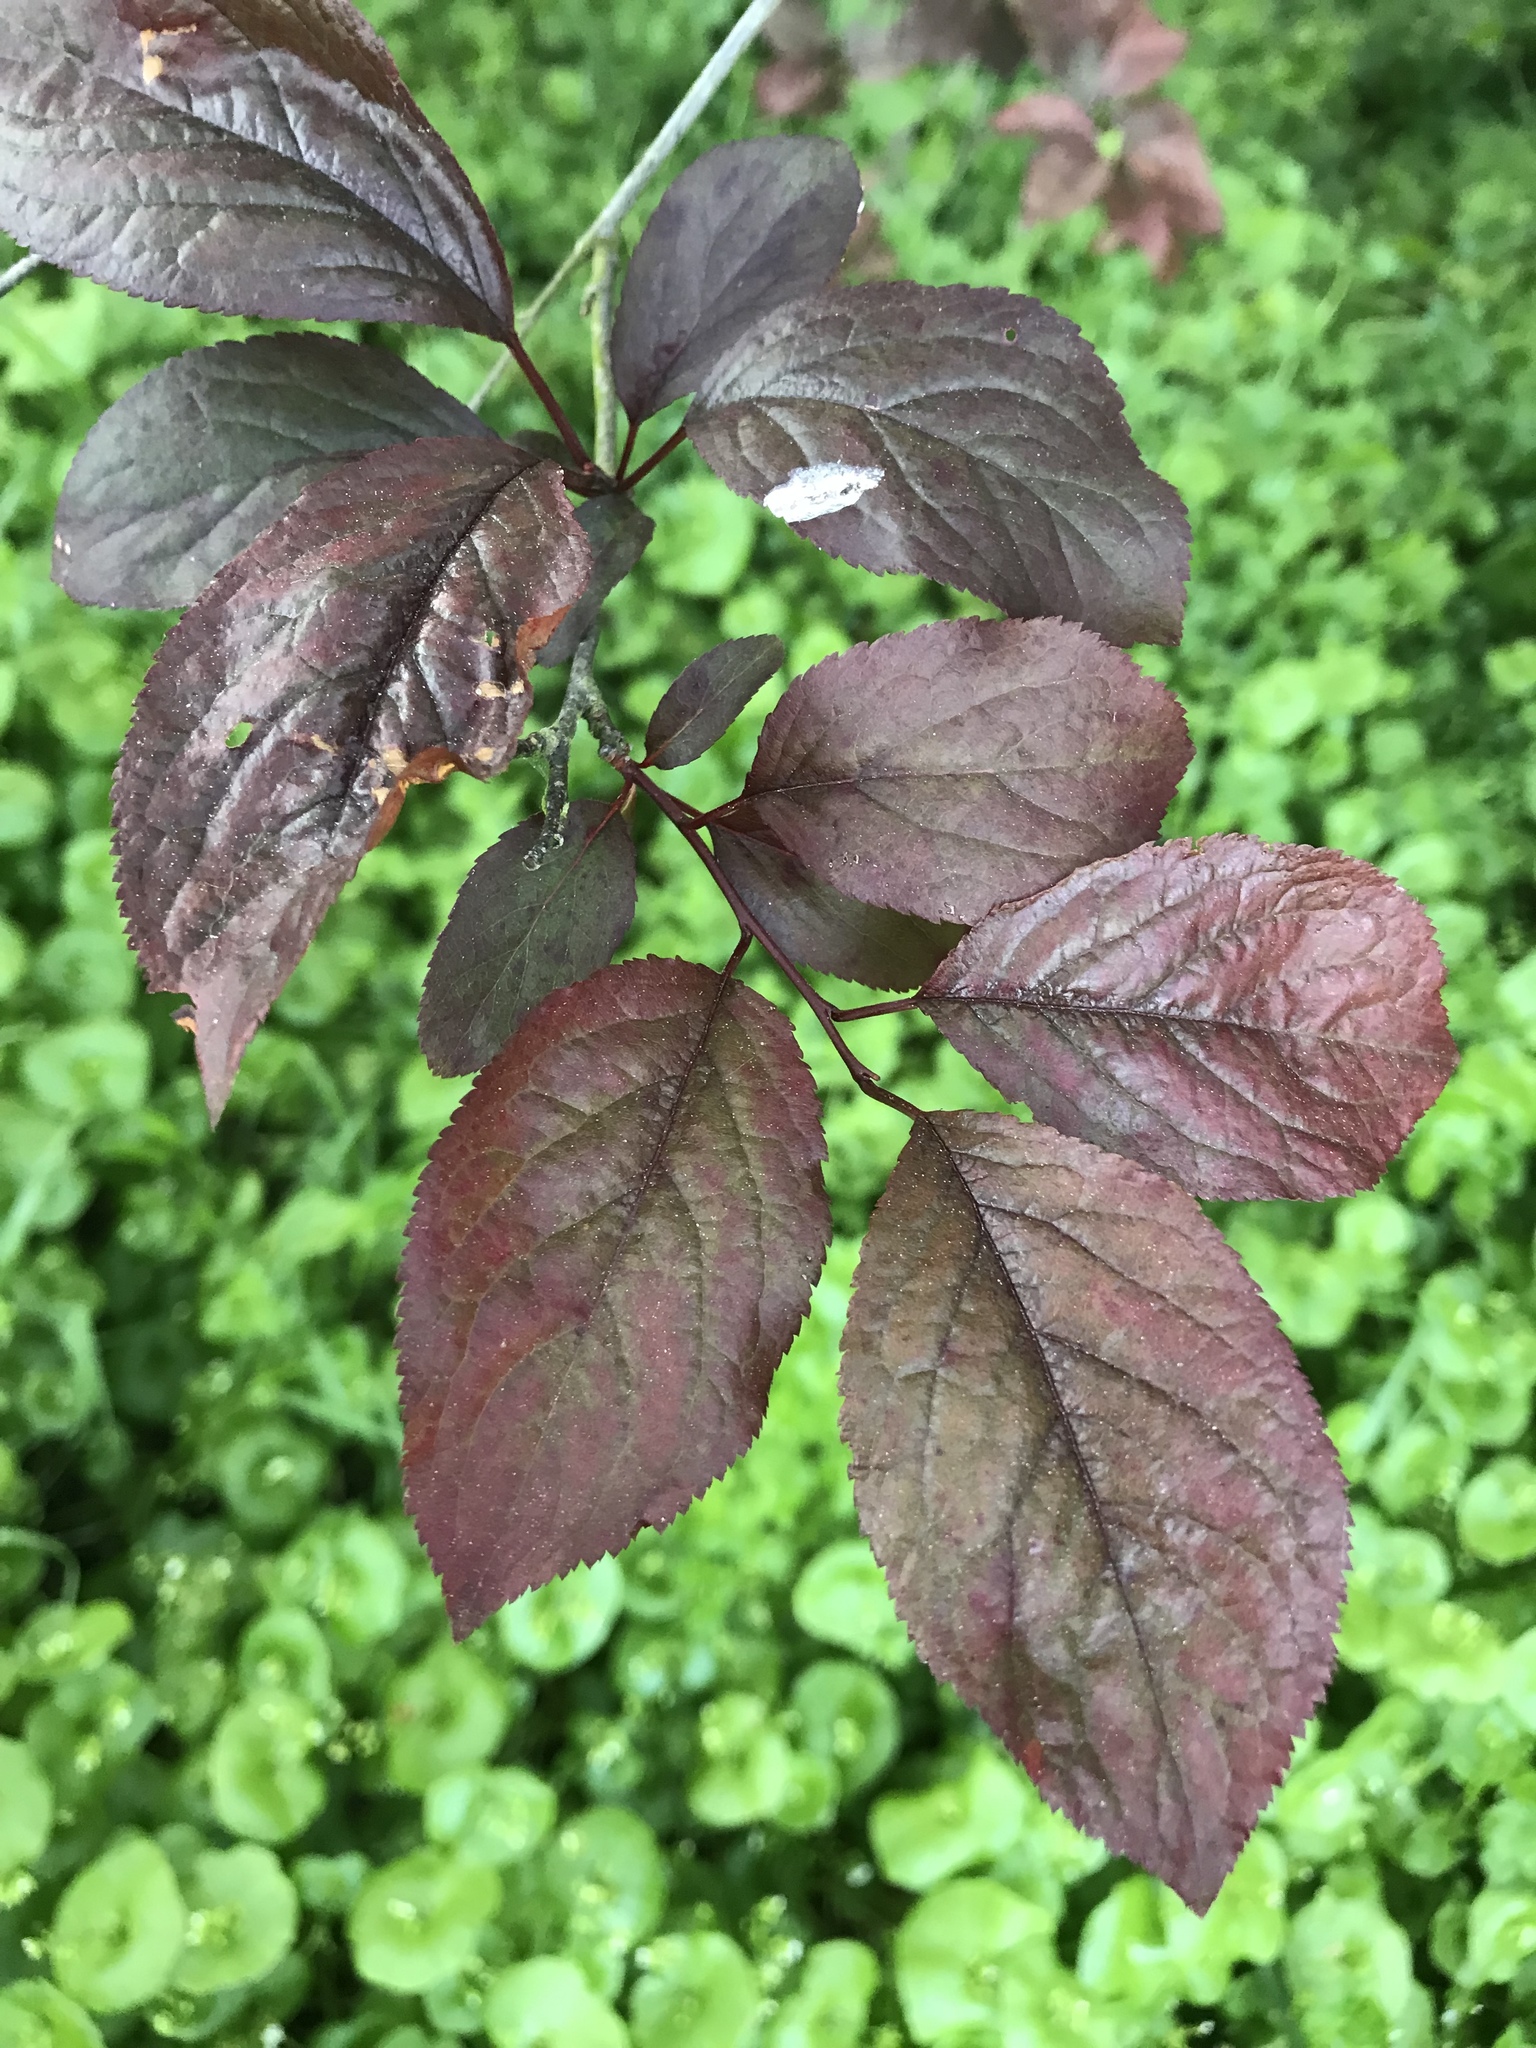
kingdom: Plantae
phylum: Tracheophyta
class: Magnoliopsida
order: Rosales
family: Rosaceae
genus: Prunus
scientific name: Prunus cerasifera
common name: Cherry plum
